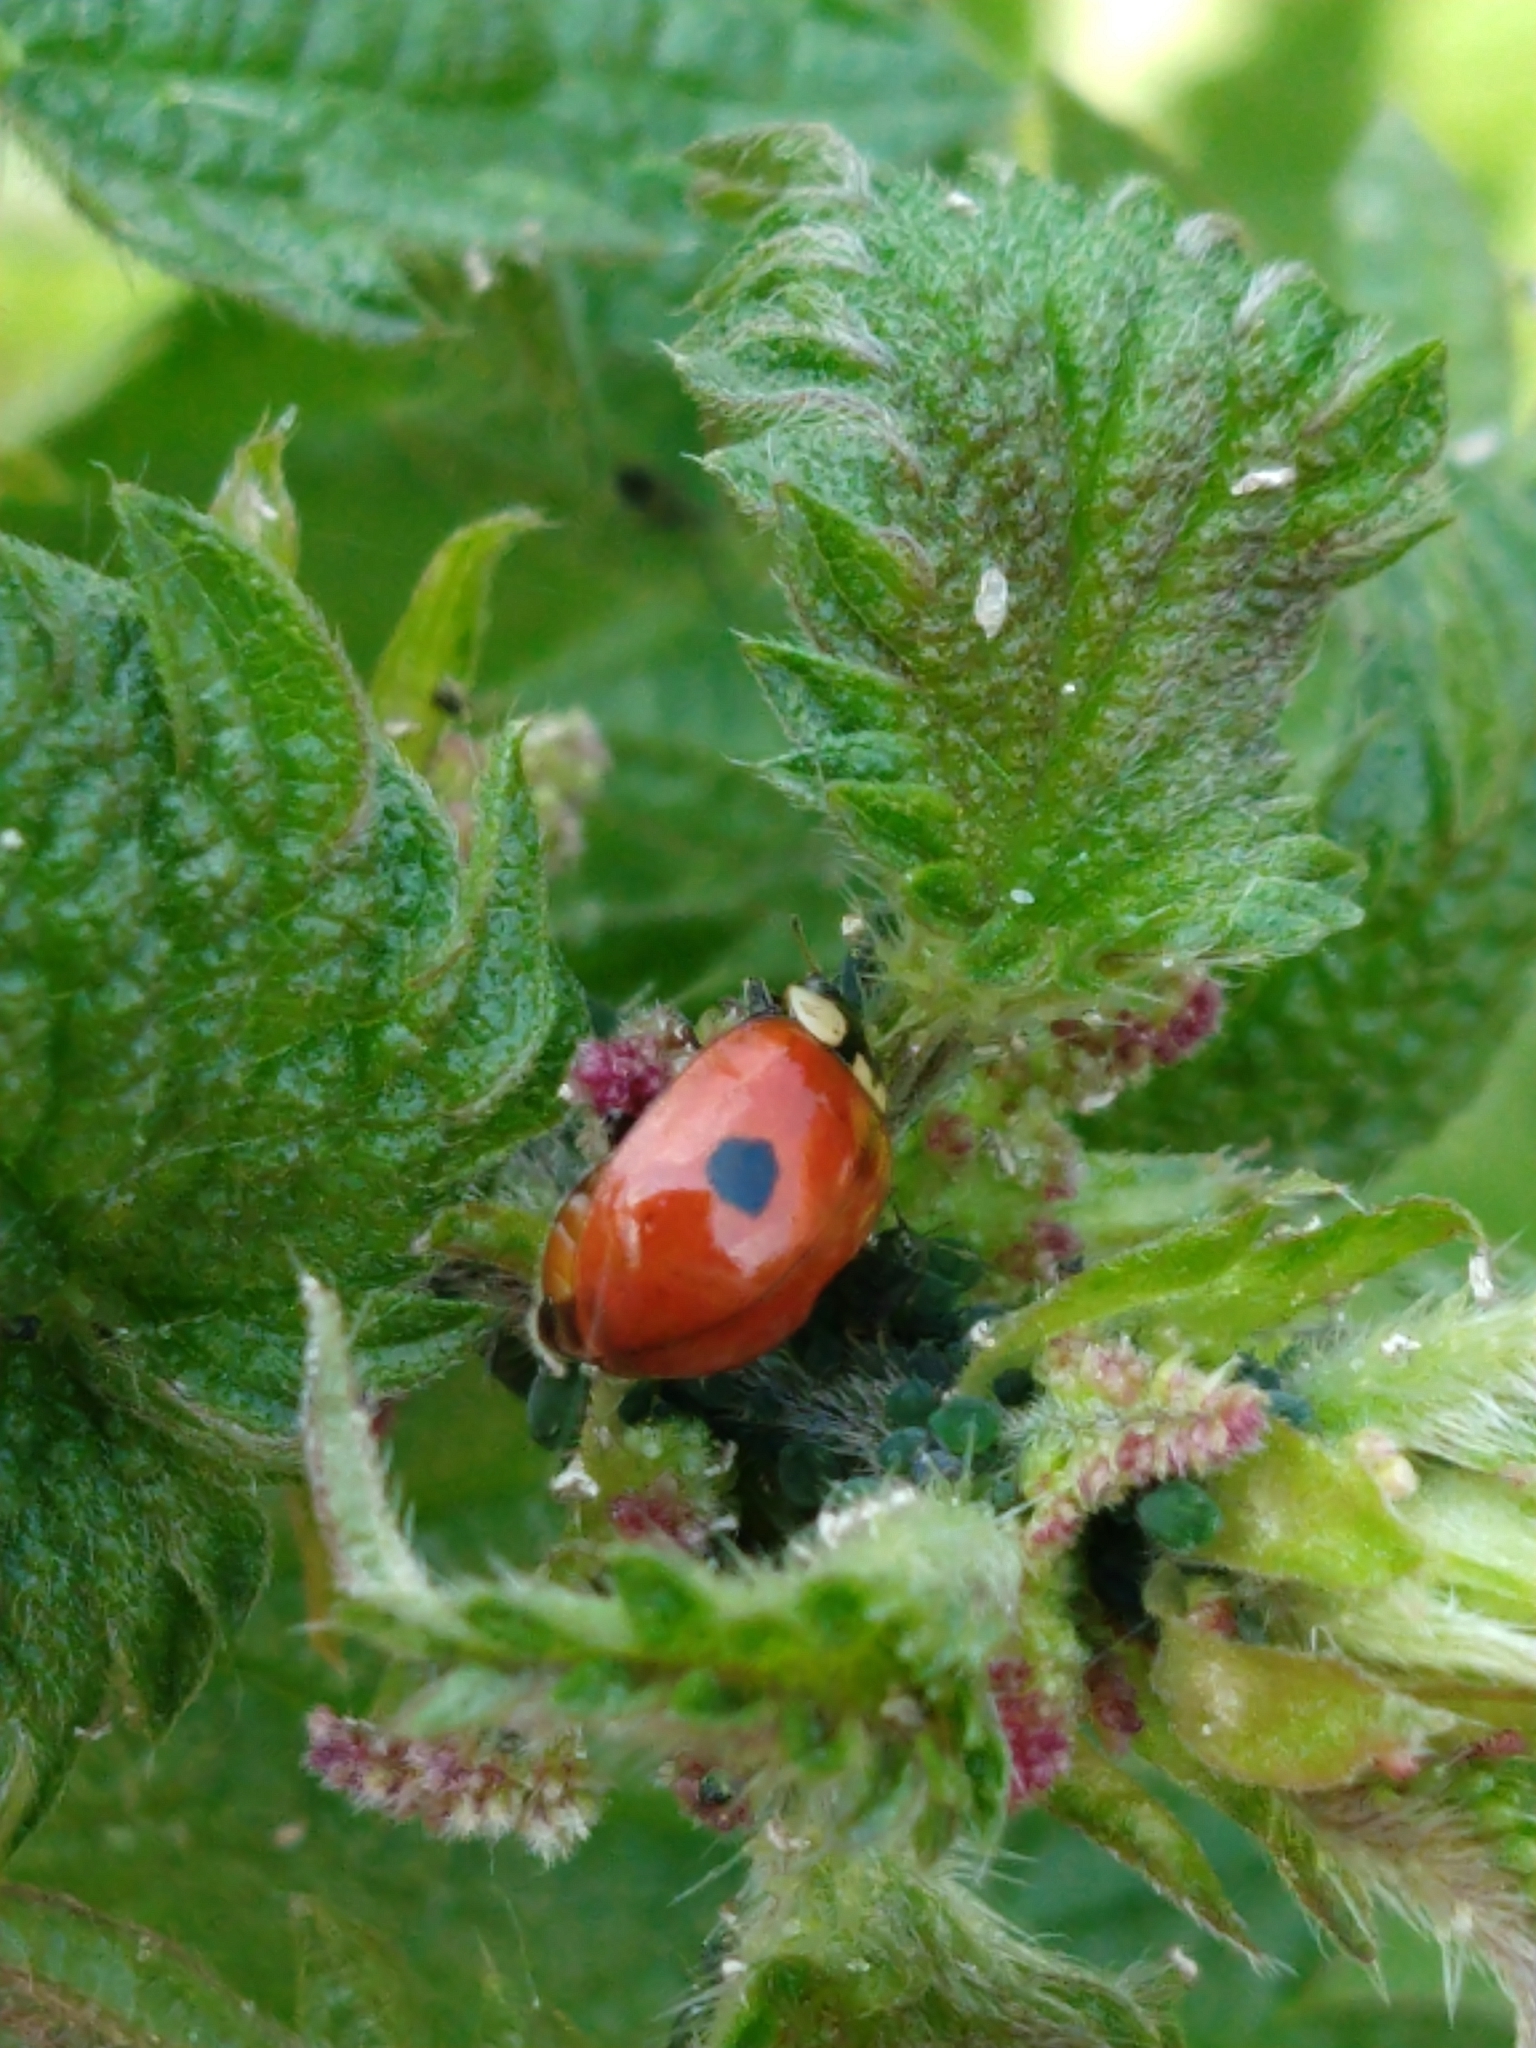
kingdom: Animalia
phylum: Arthropoda
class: Insecta
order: Coleoptera
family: Coccinellidae
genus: Adalia
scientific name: Adalia bipunctata
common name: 2-spot ladybird
